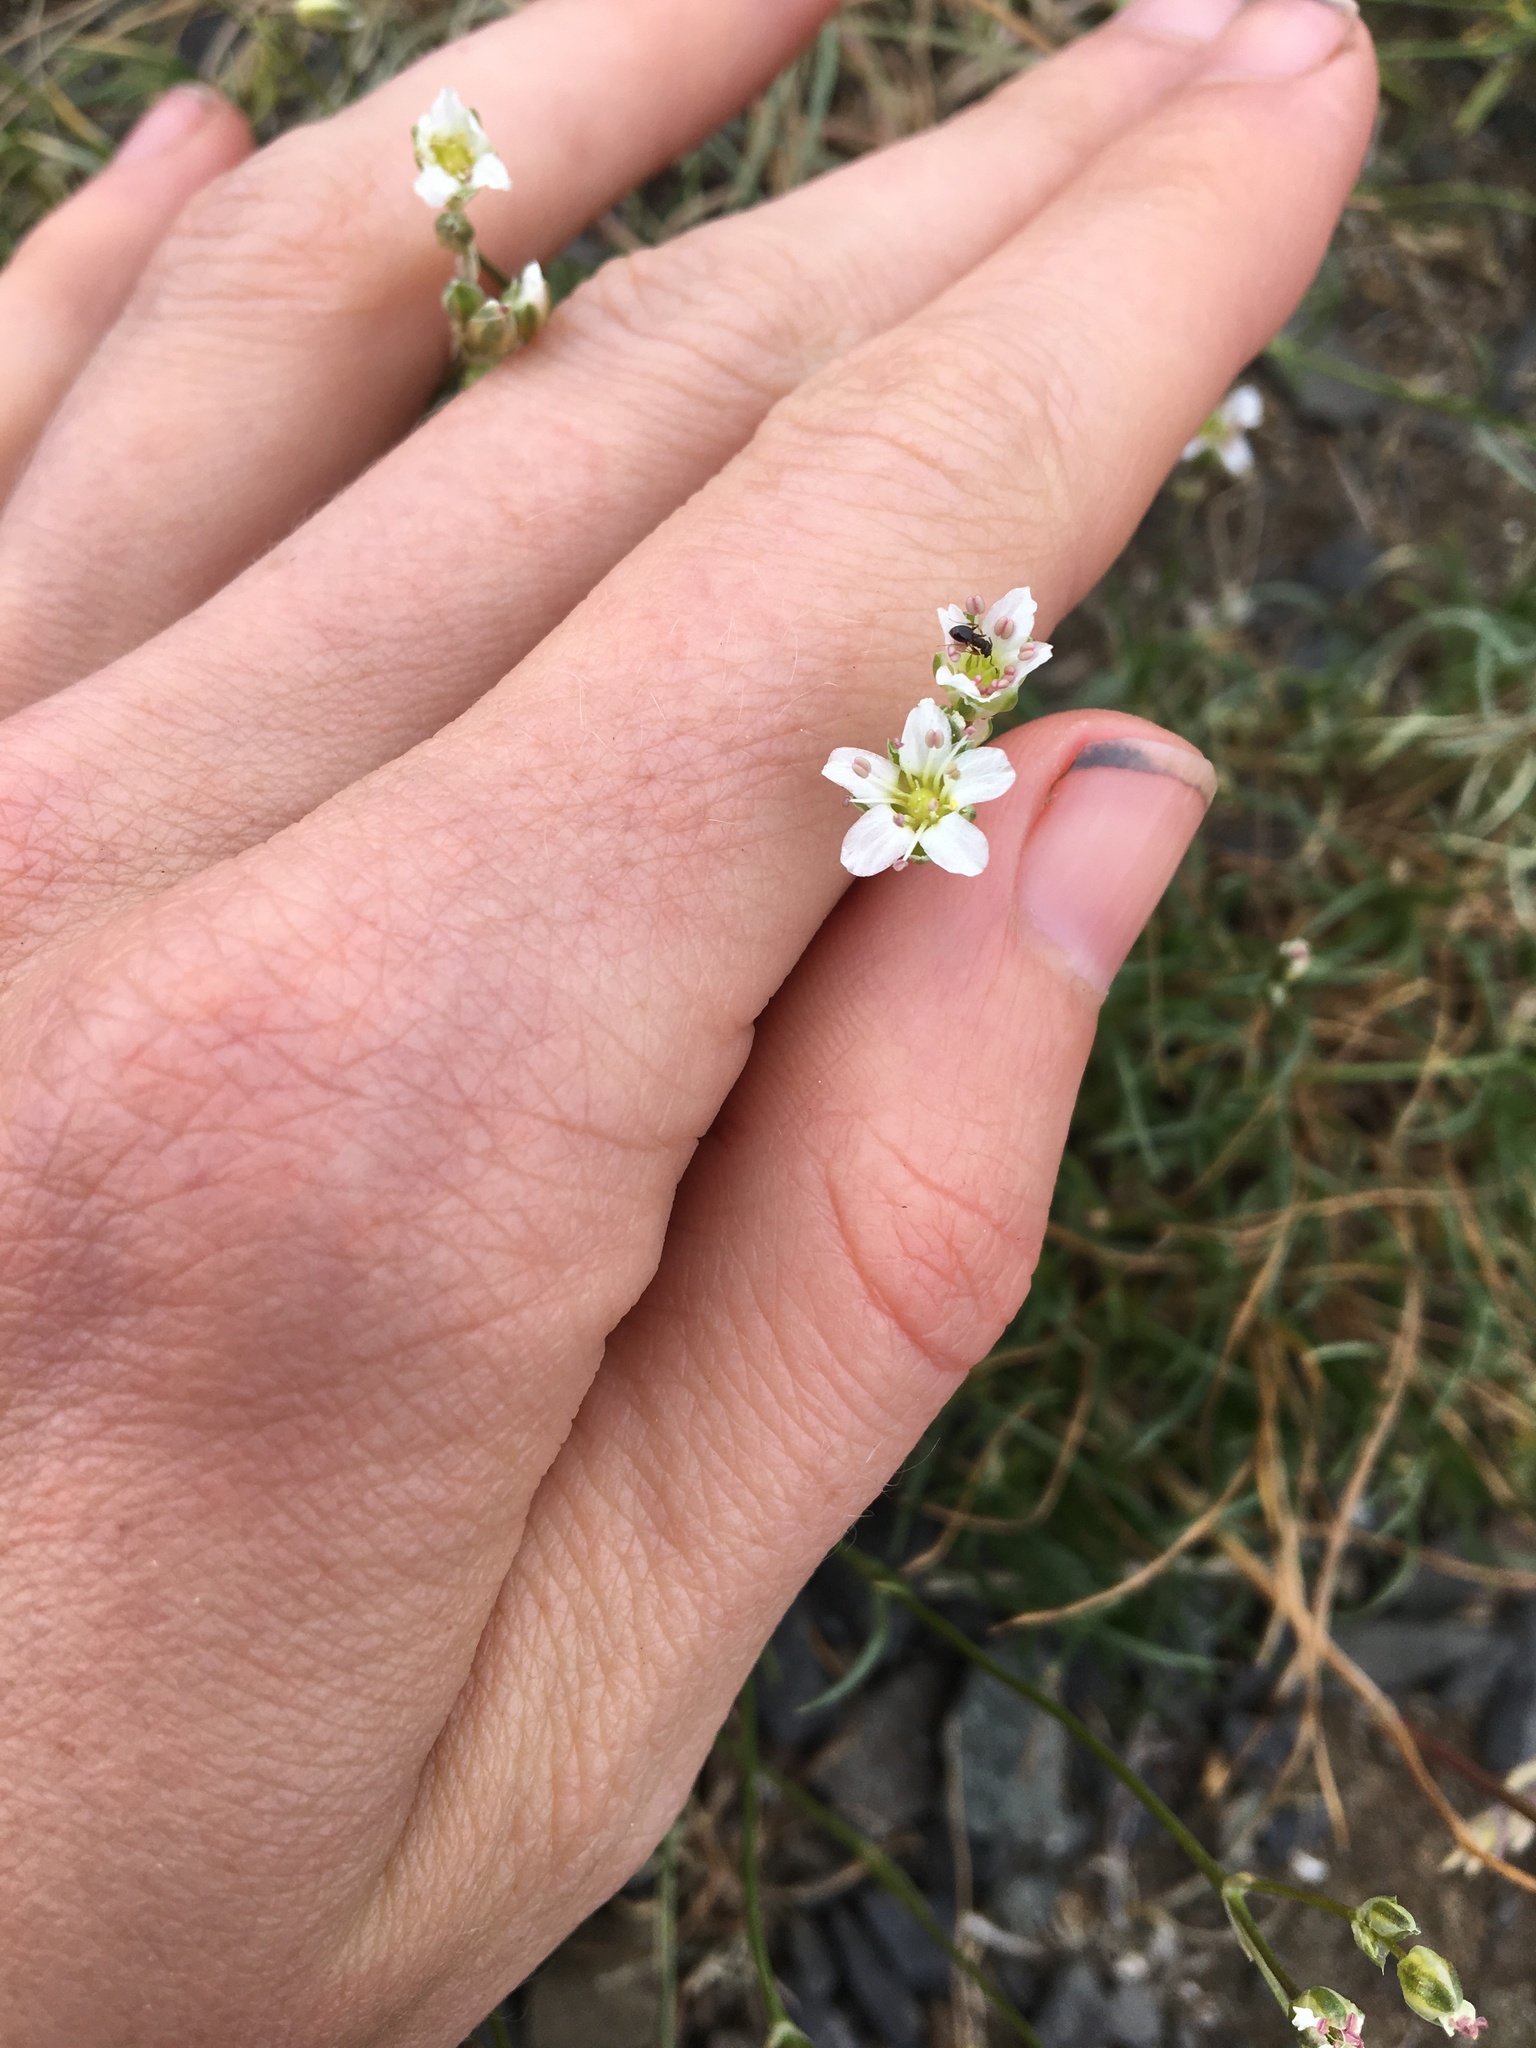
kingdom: Plantae
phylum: Tracheophyta
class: Magnoliopsida
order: Caryophyllales
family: Caryophyllaceae
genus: Eremogone
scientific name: Eremogone capillaris
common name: Slender mountain sandwort
